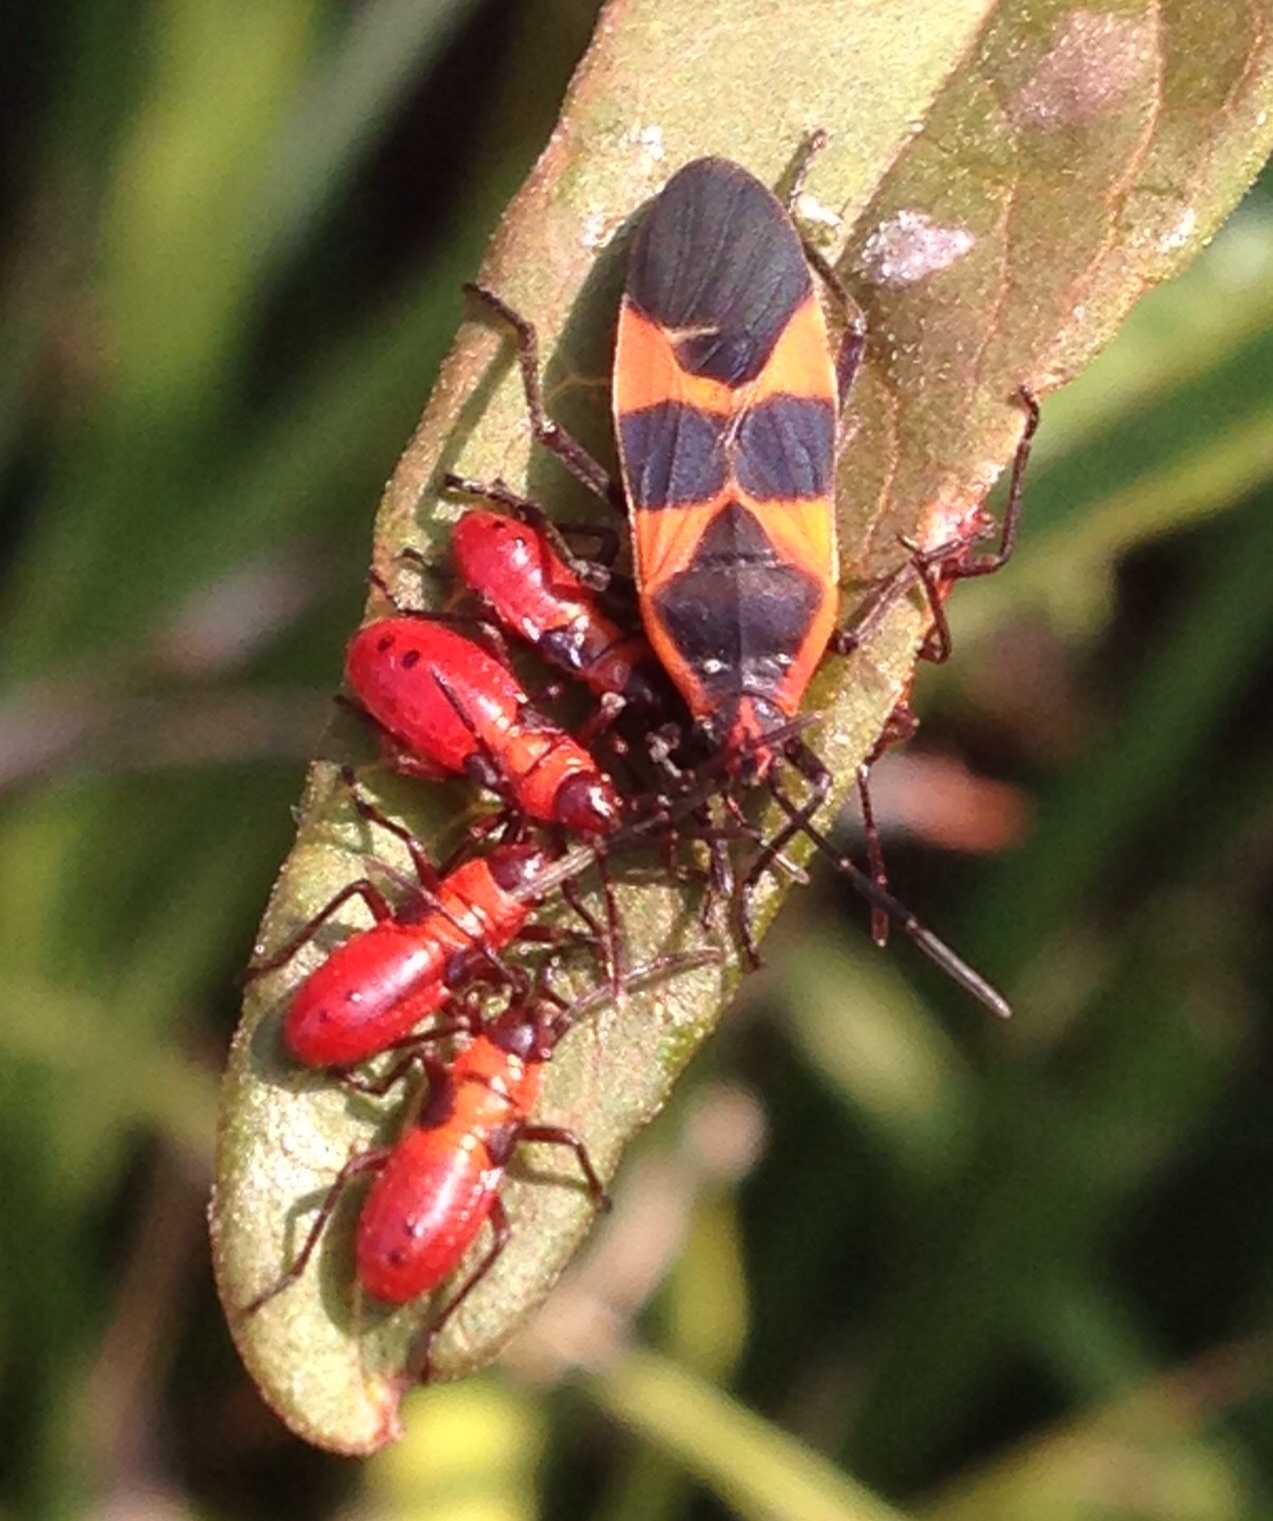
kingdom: Animalia
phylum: Arthropoda
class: Insecta
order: Hemiptera
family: Lygaeidae
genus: Oncopeltus
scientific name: Oncopeltus fasciatus
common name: Large milkweed bug
